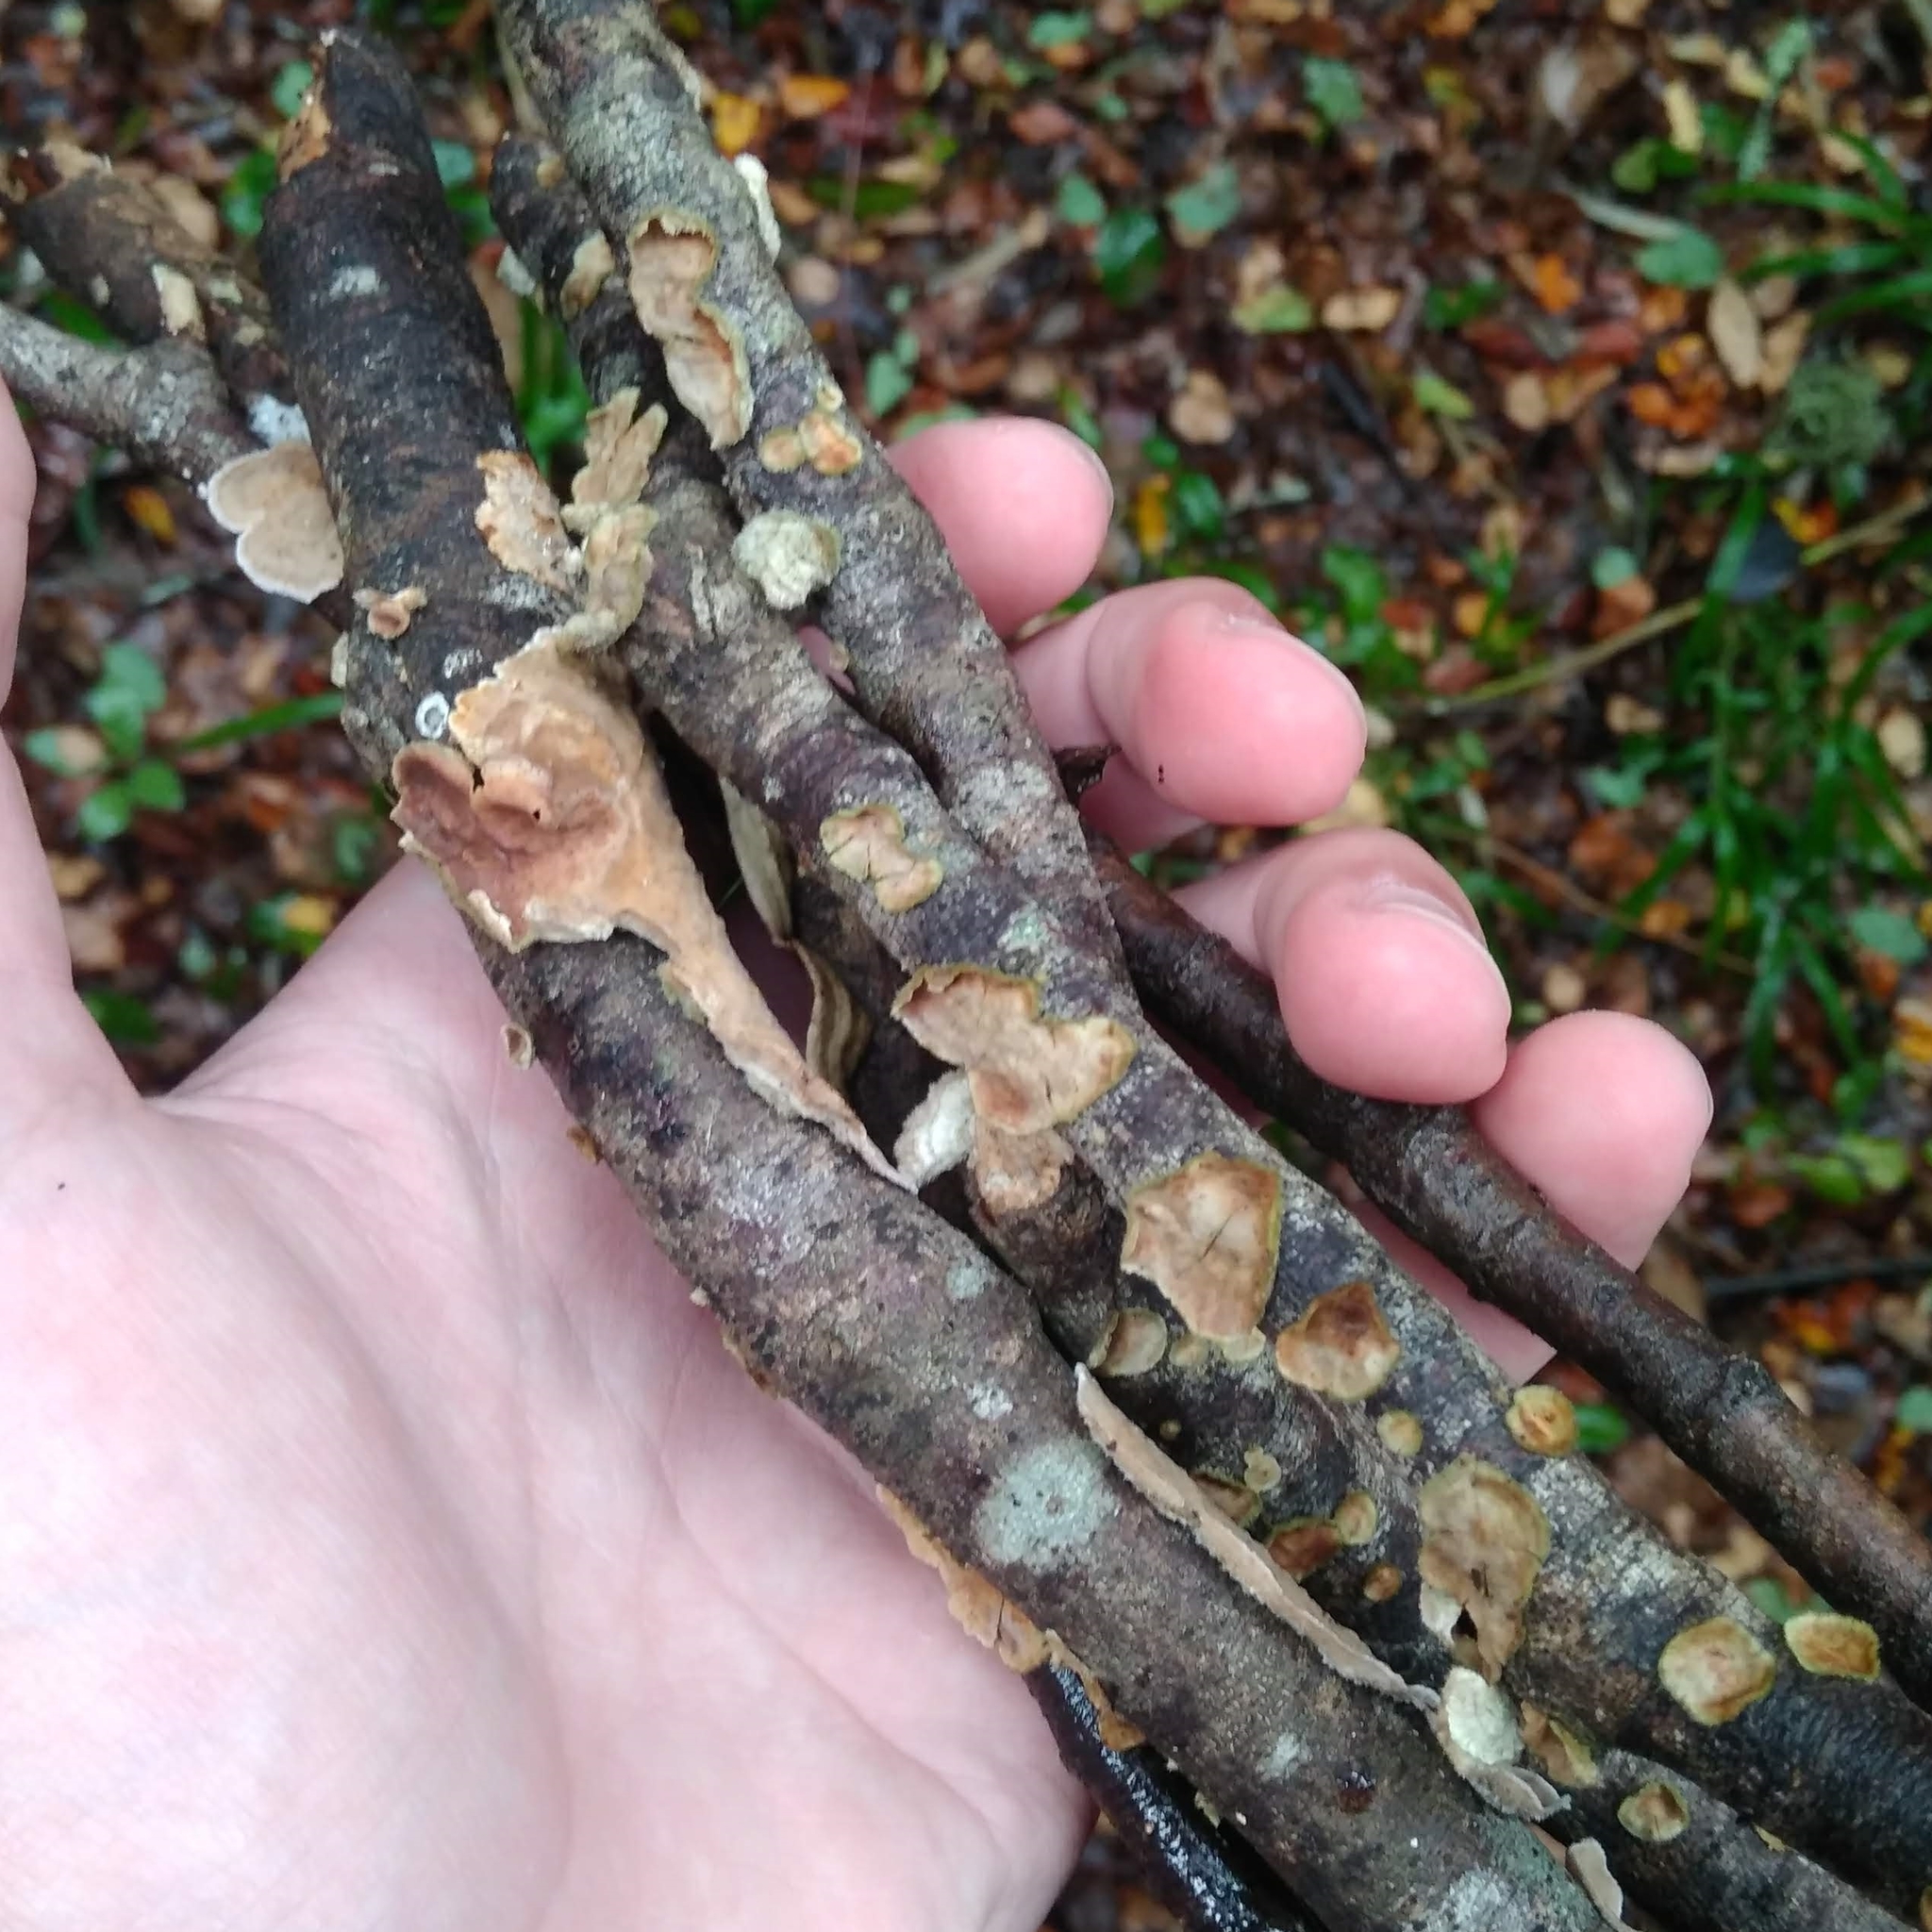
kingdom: Fungi
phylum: Basidiomycota
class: Agaricomycetes
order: Russulales
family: Stereaceae
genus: Stereum
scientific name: Stereum hirsutum
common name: Hairy curtain crust
